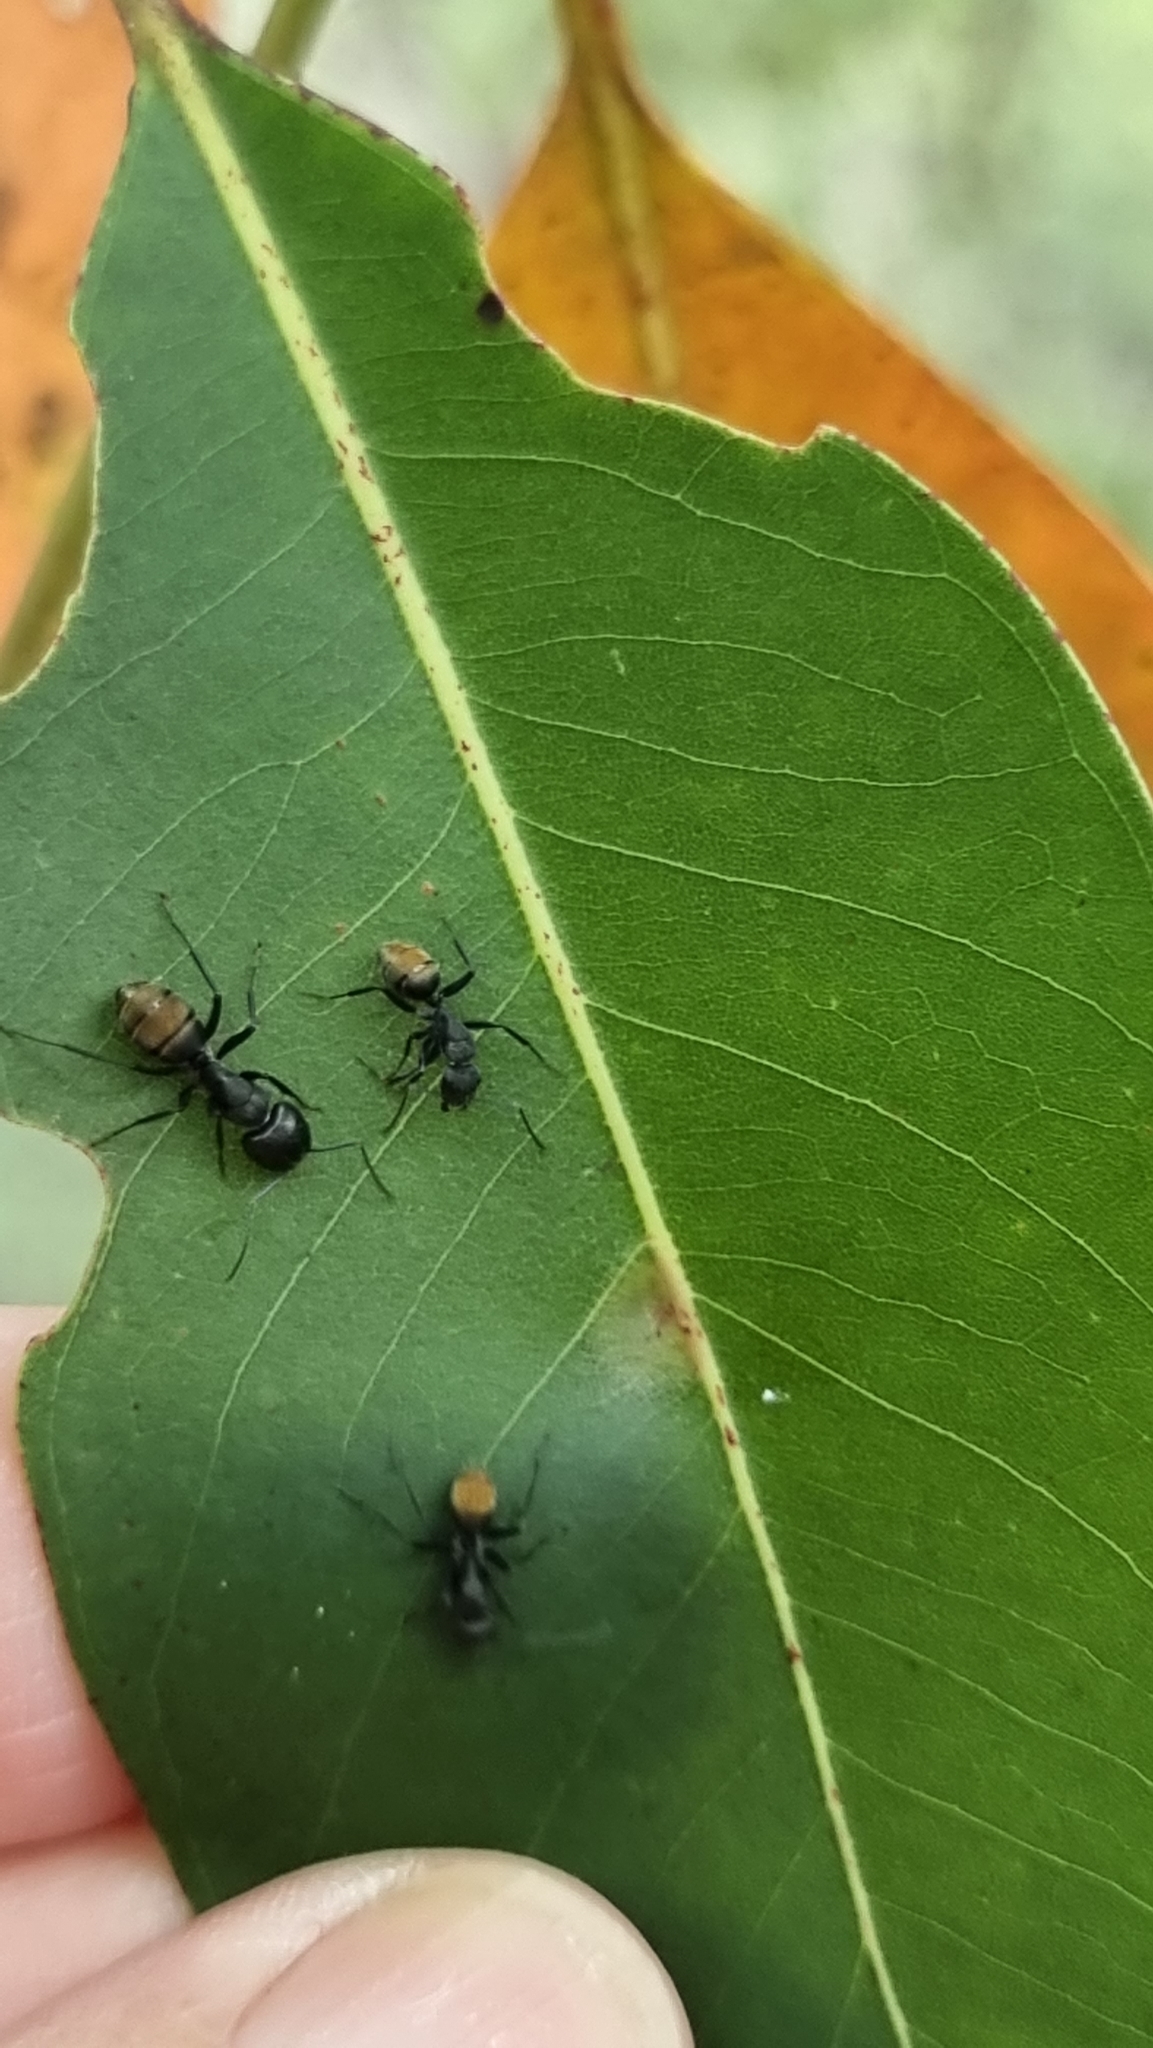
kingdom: Animalia
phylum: Arthropoda
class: Insecta
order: Hymenoptera
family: Formicidae
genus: Camponotus
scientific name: Camponotus aeneopilosus
